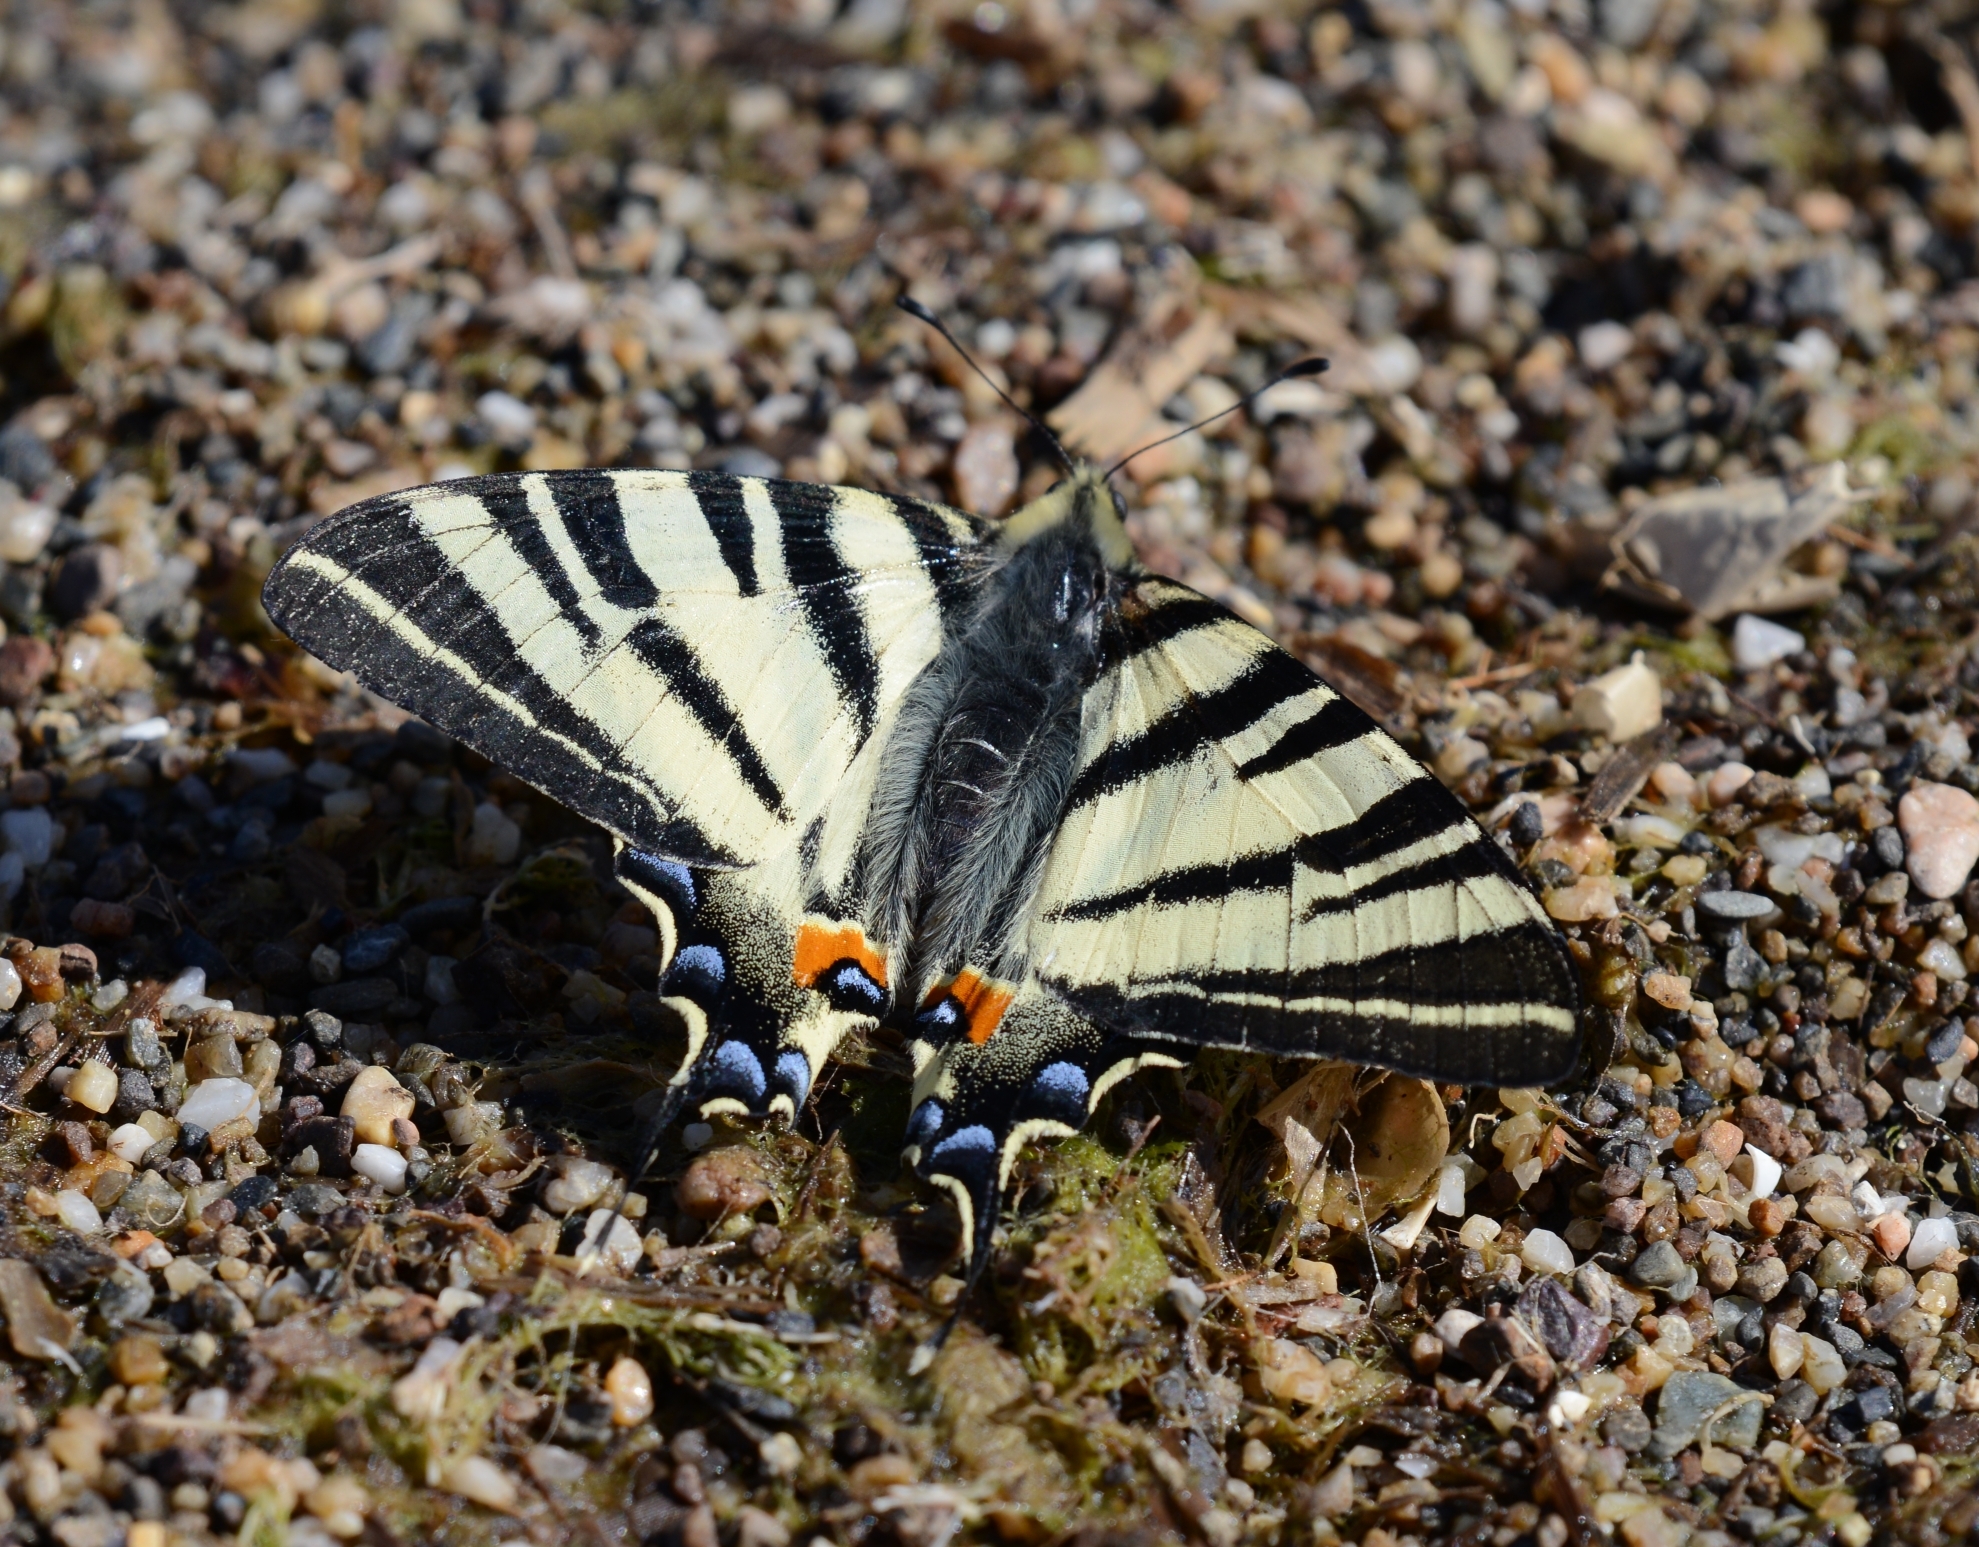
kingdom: Animalia
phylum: Arthropoda
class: Insecta
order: Lepidoptera
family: Papilionidae
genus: Iphiclides
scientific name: Iphiclides podalirius
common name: Scarce swallowtail
